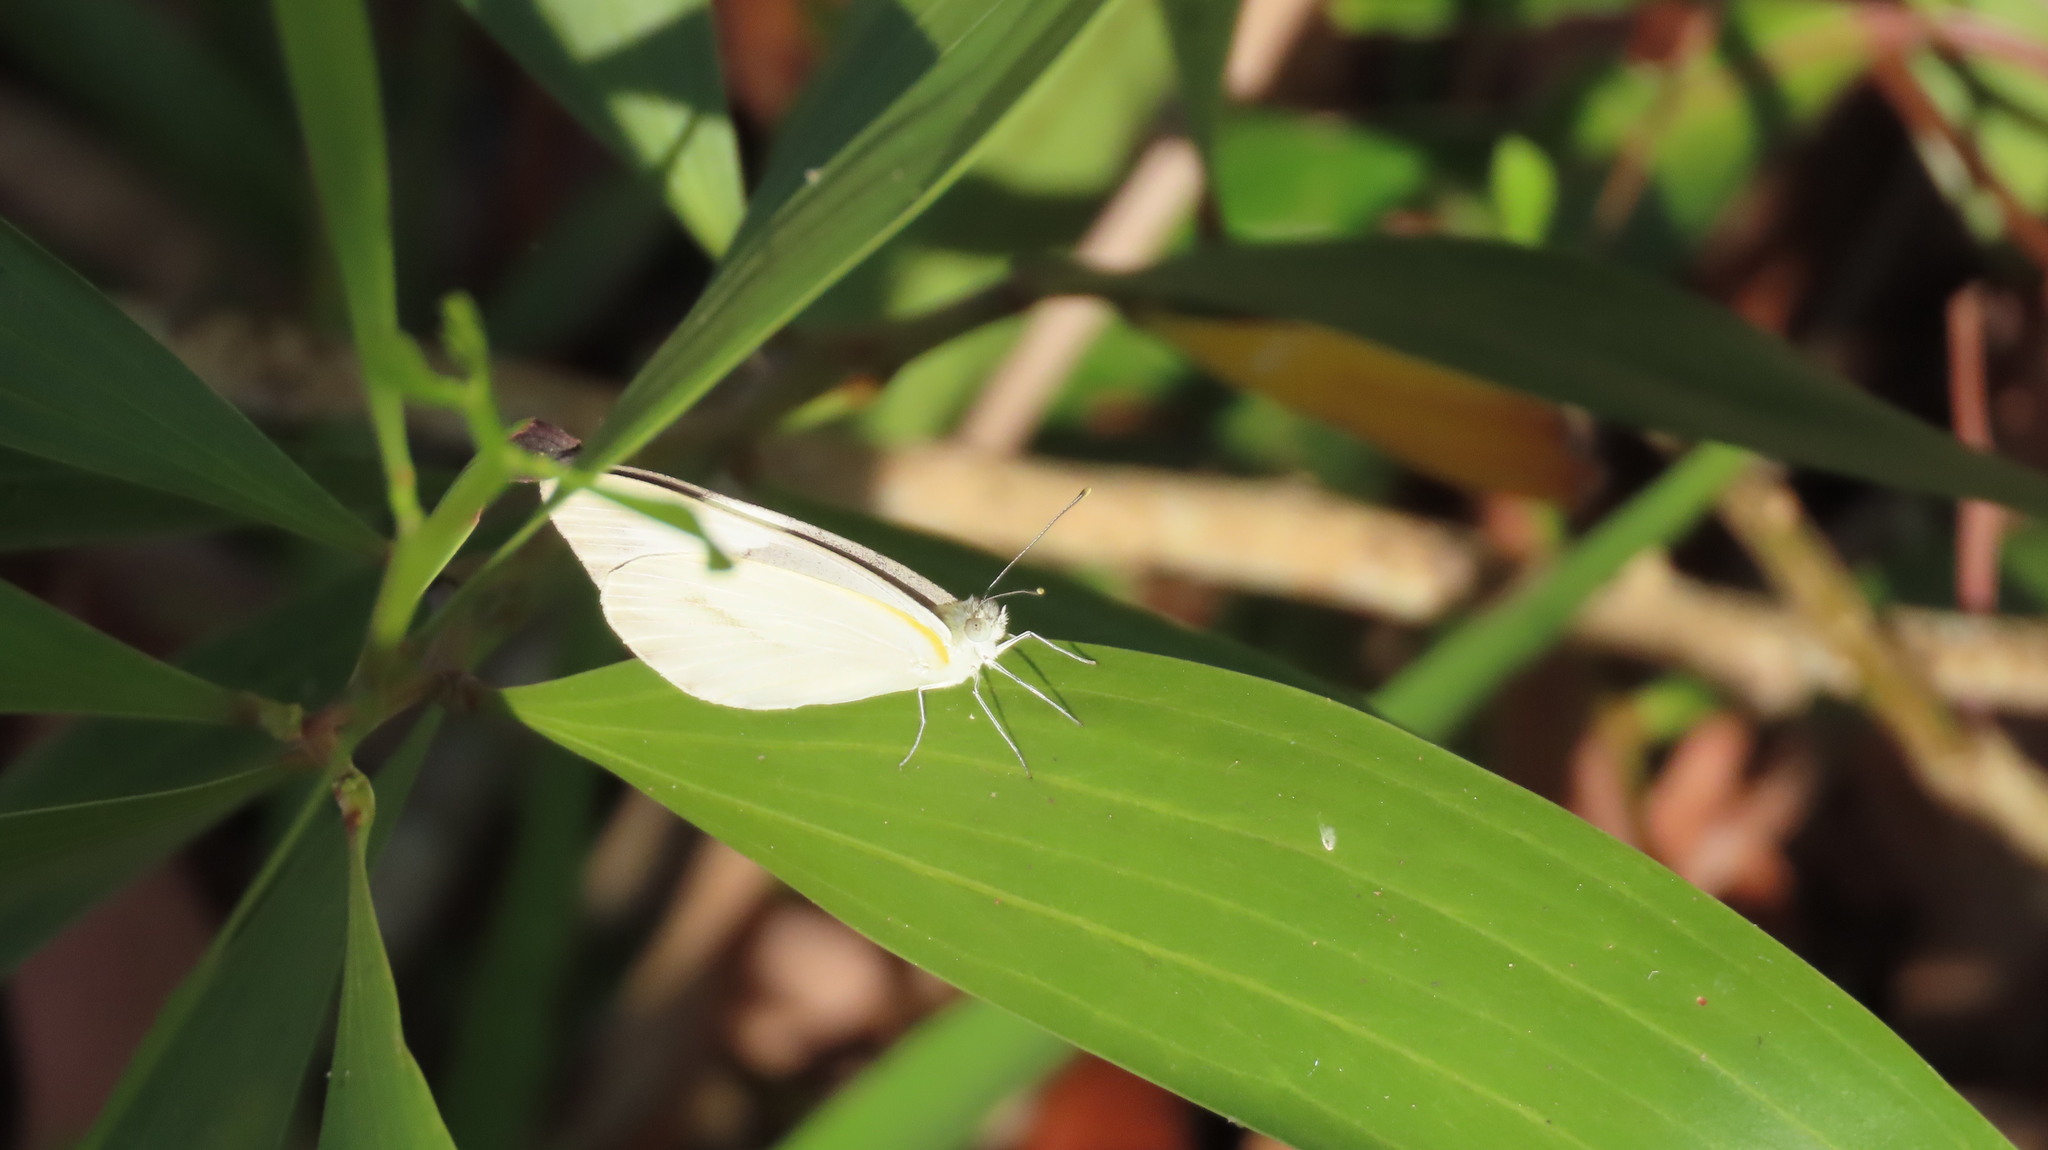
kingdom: Animalia
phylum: Arthropoda
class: Insecta
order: Lepidoptera
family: Pieridae
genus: Appias
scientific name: Appias libythea
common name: Striped albatross
